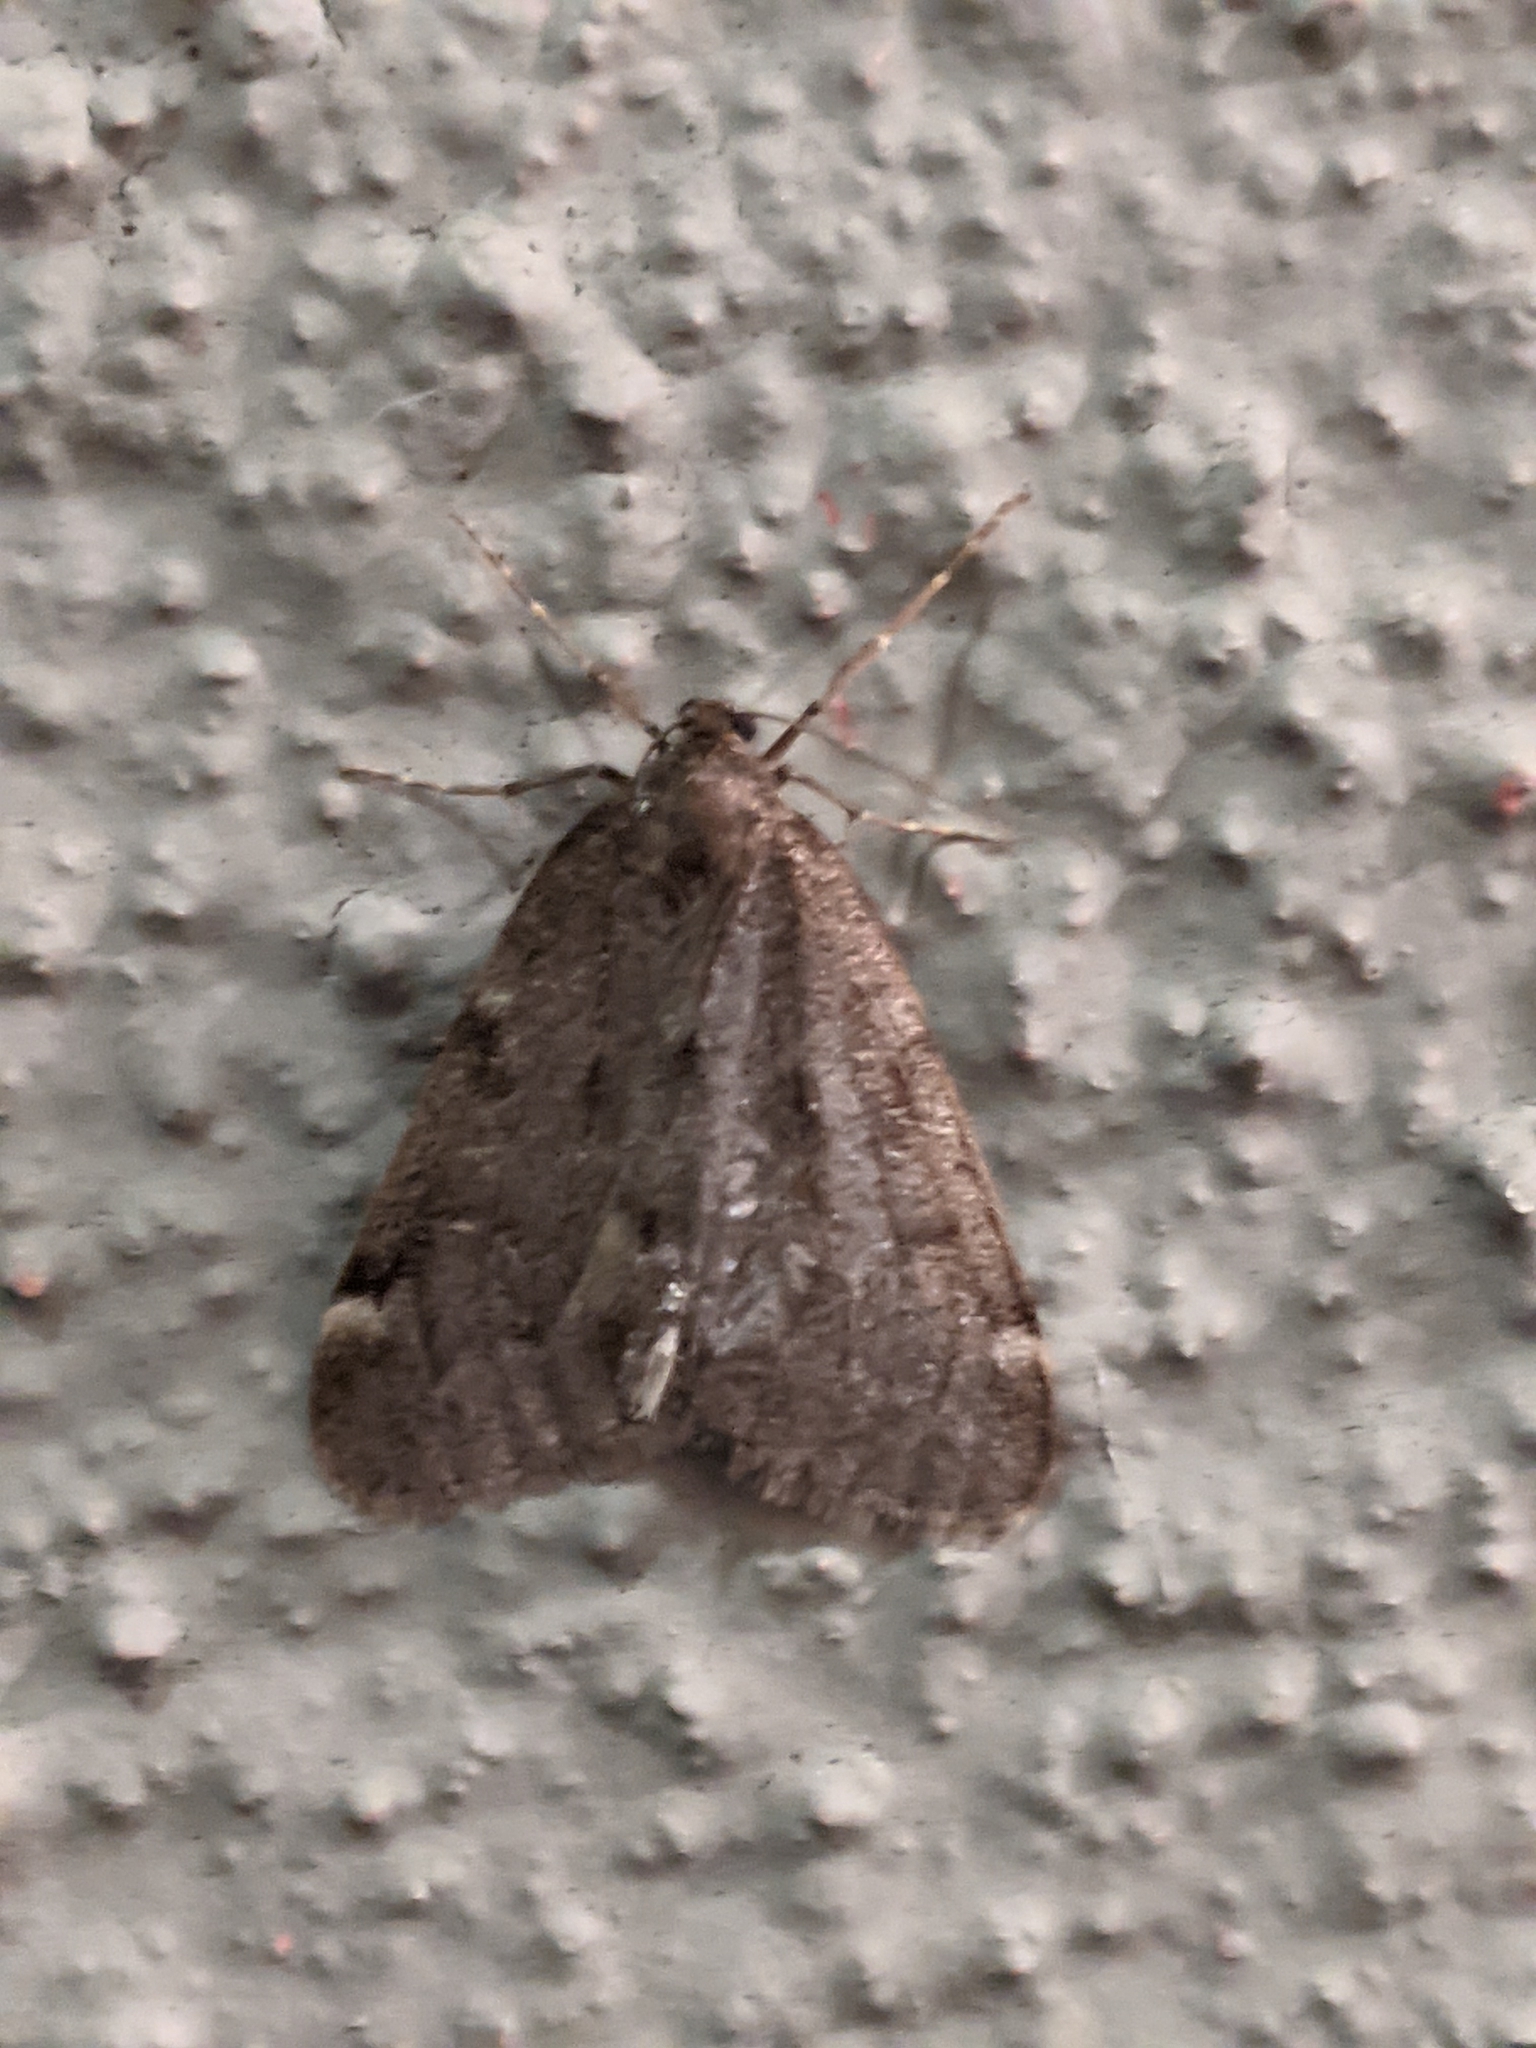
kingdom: Animalia
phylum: Arthropoda
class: Insecta
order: Lepidoptera
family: Geometridae
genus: Alsophila
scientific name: Alsophila pometaria
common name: Fall cankerworm
